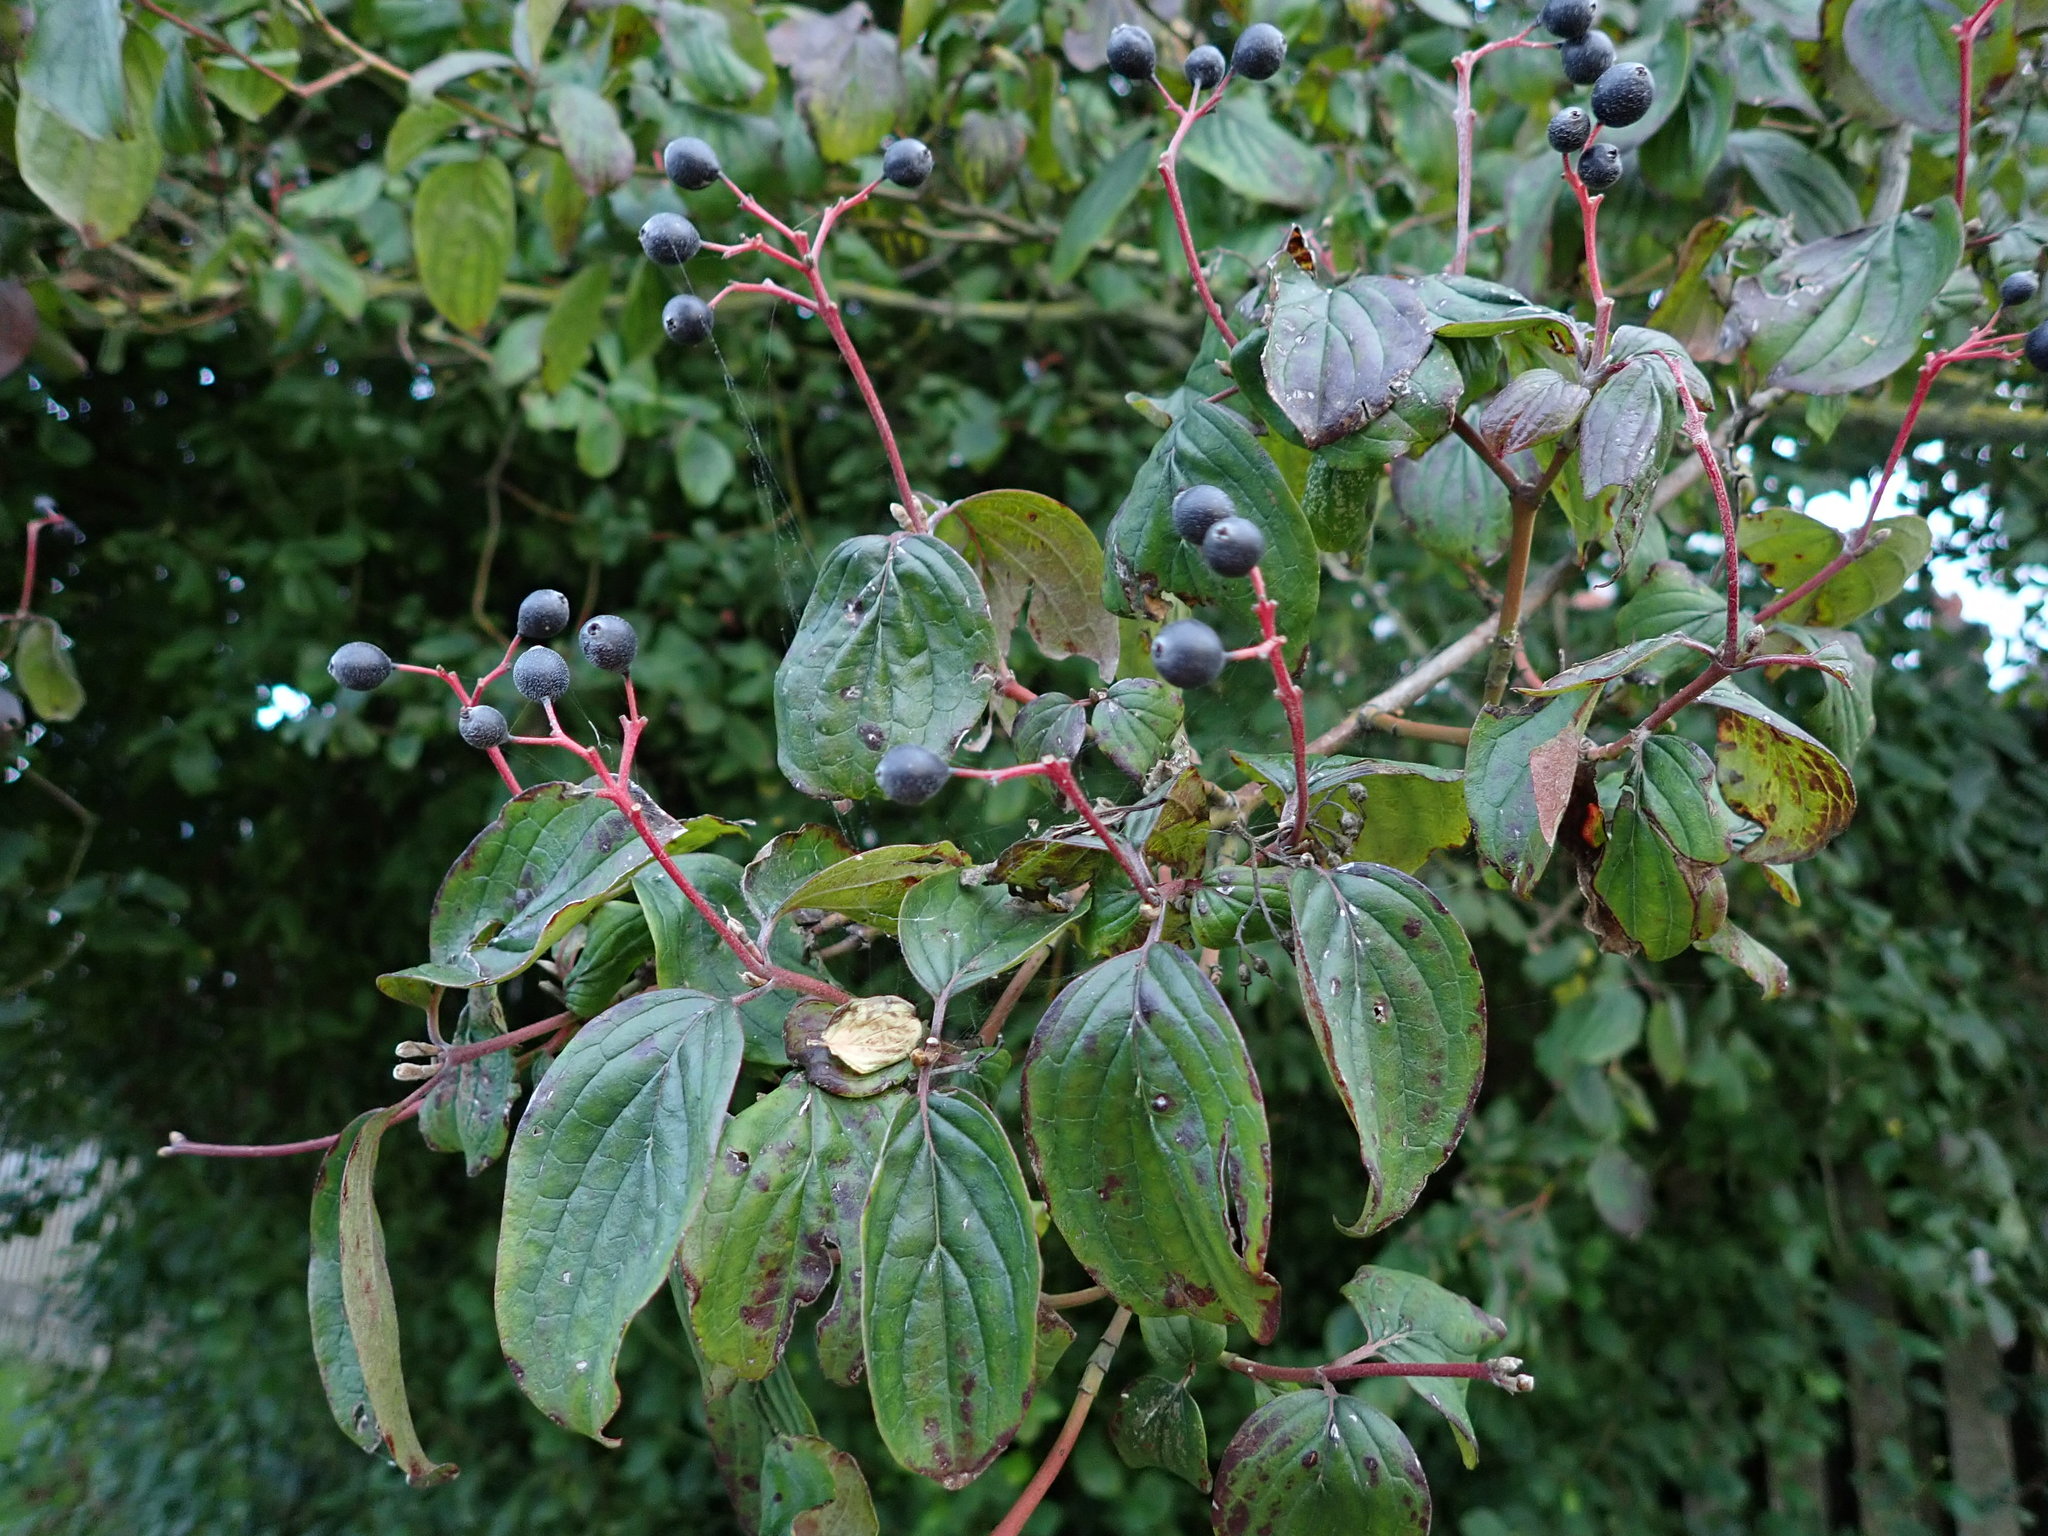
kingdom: Plantae
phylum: Tracheophyta
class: Magnoliopsida
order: Cornales
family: Cornaceae
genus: Cornus
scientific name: Cornus sanguinea
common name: Dogwood
